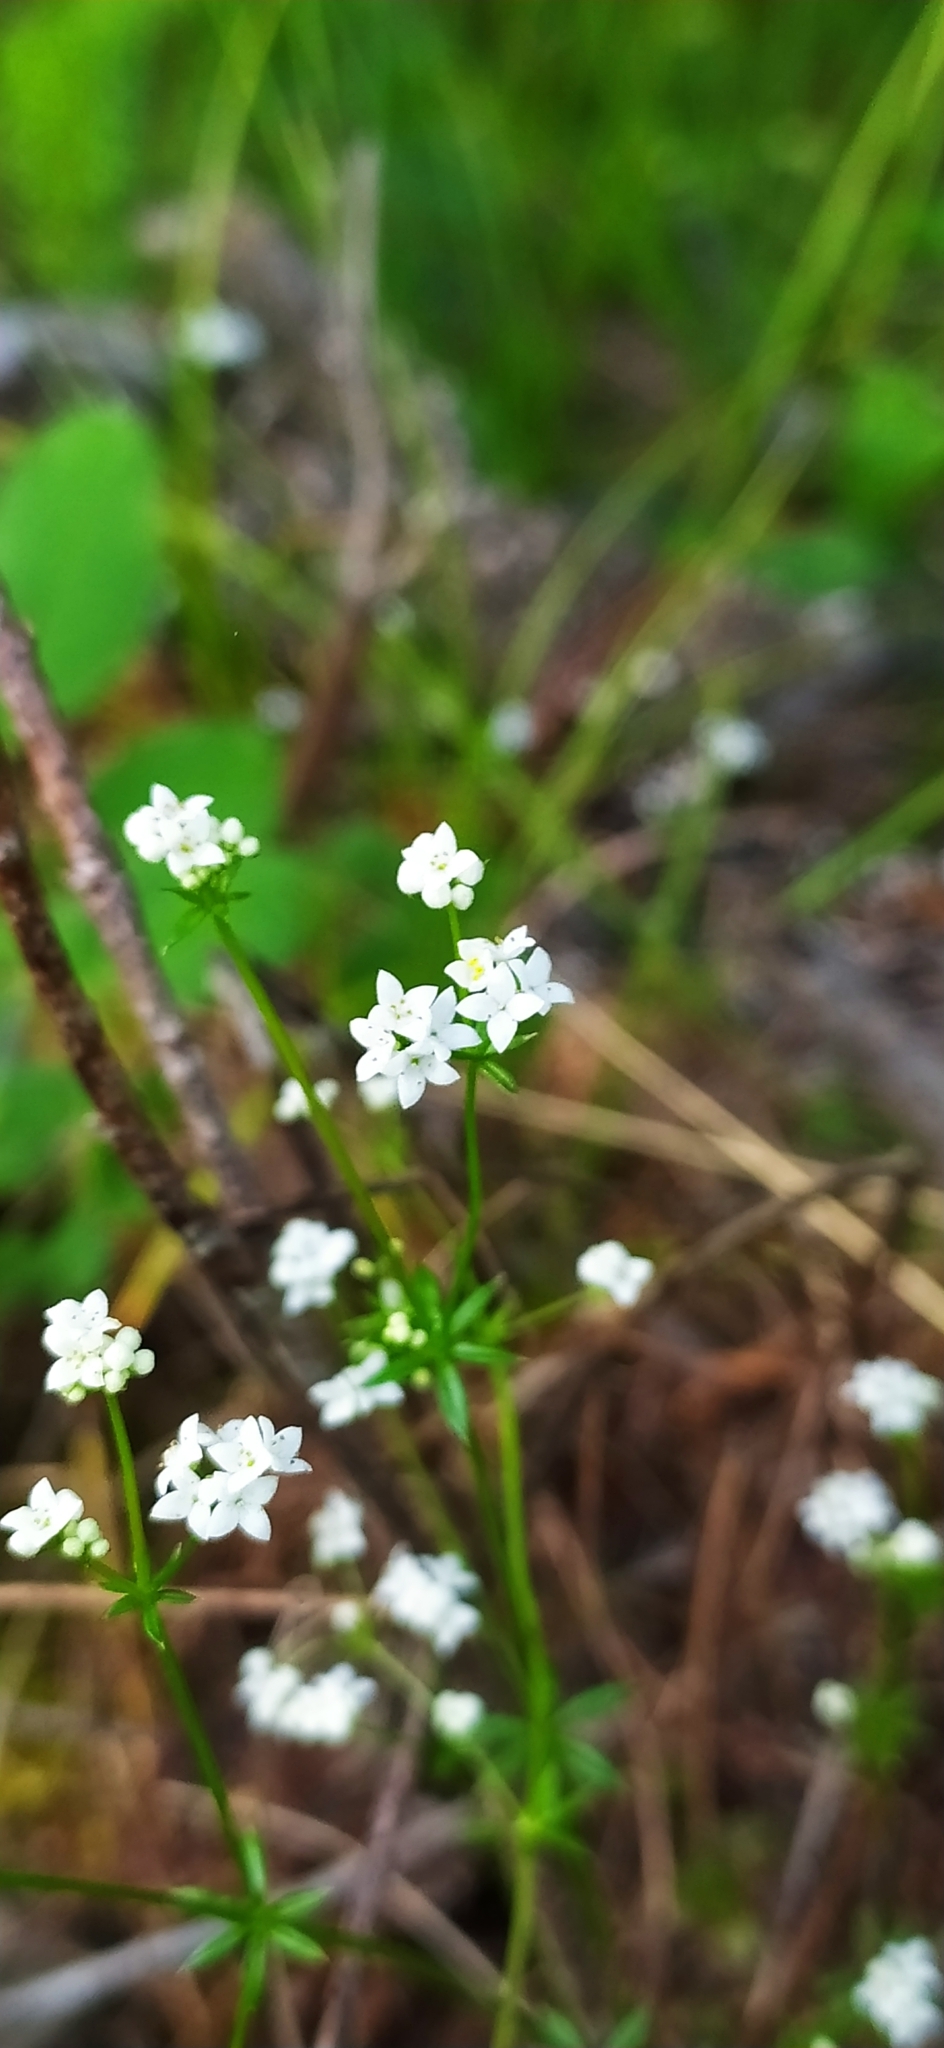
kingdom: Plantae
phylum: Tracheophyta
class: Magnoliopsida
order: Gentianales
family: Rubiaceae
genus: Galium
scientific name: Galium uliginosum
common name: Fen bedstraw
